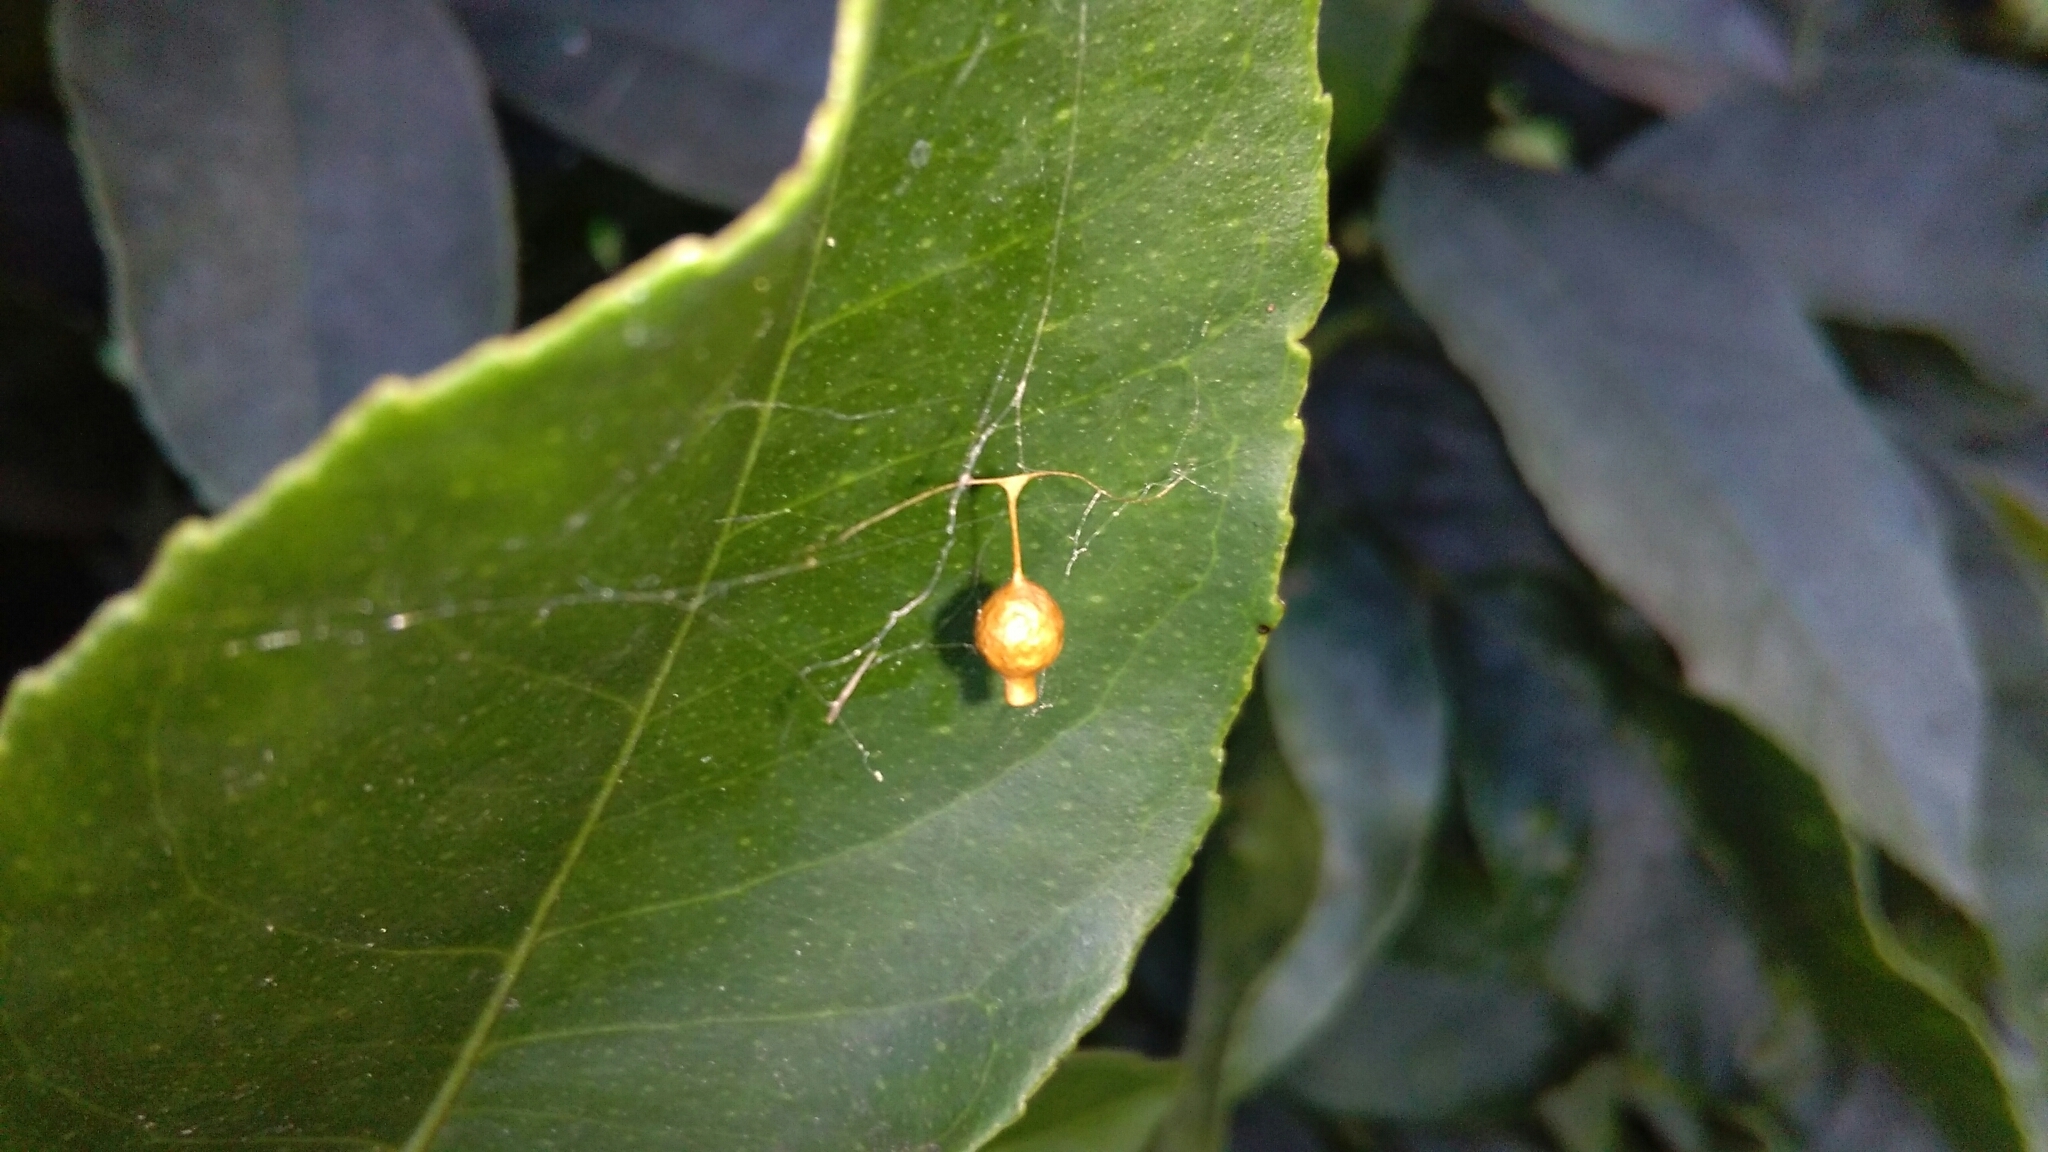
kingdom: Animalia
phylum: Arthropoda
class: Arachnida
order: Araneae
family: Theridiidae
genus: Argyrodes
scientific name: Argyrodes antipodianus
